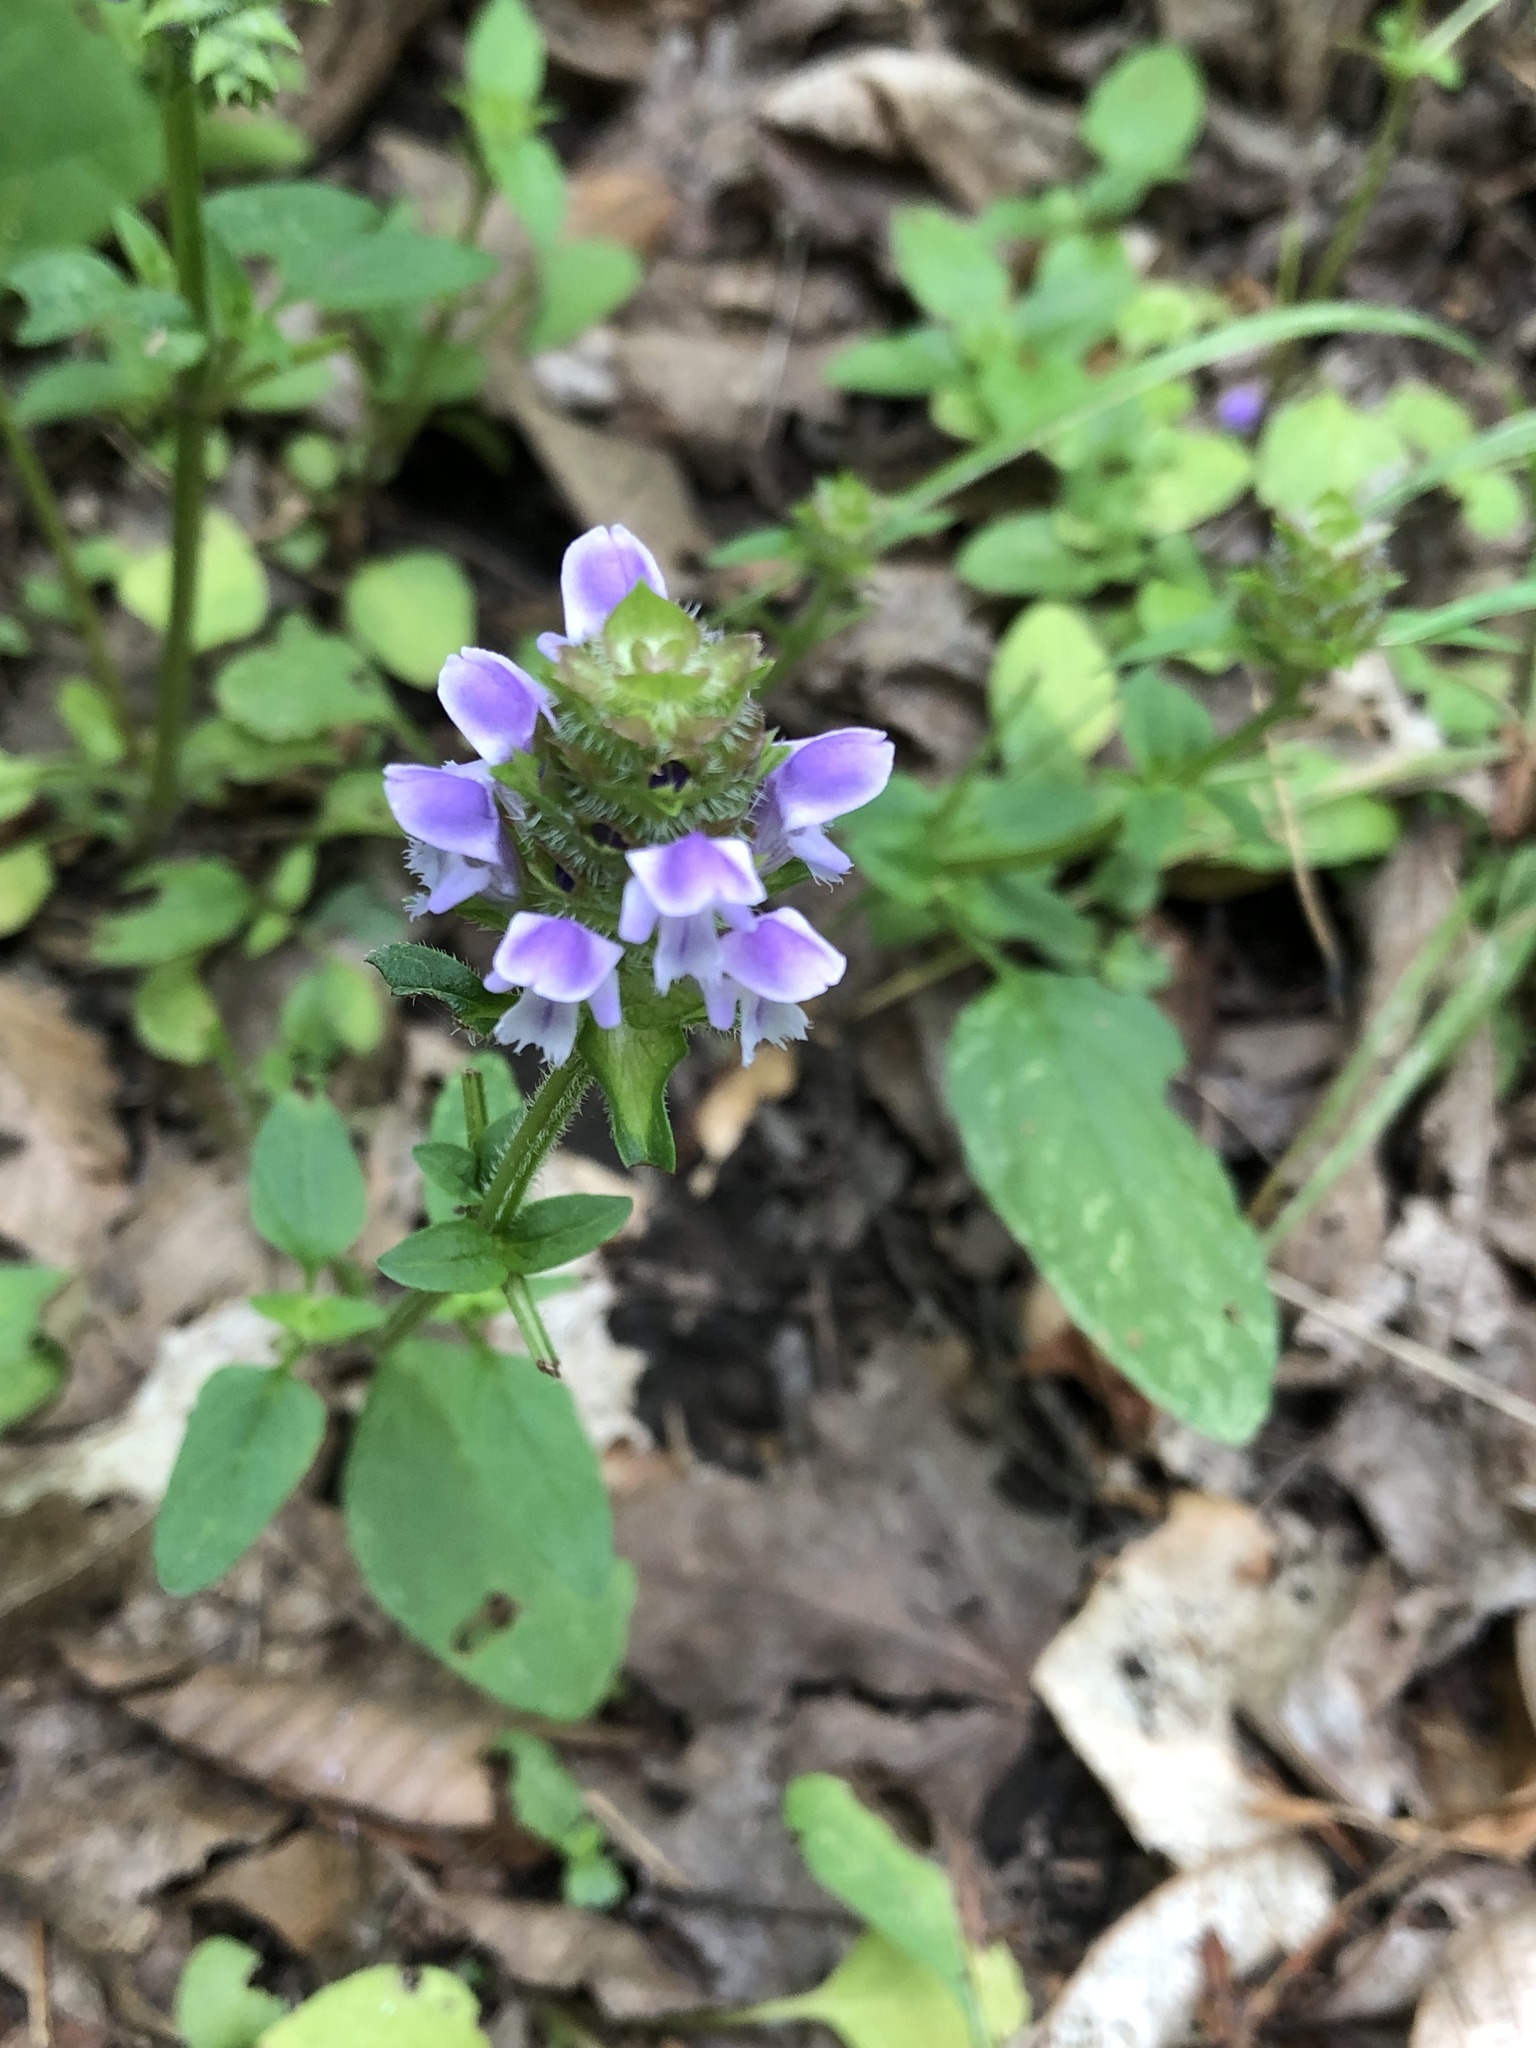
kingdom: Plantae
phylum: Tracheophyta
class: Magnoliopsida
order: Lamiales
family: Lamiaceae
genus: Prunella
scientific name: Prunella vulgaris
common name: Heal-all
